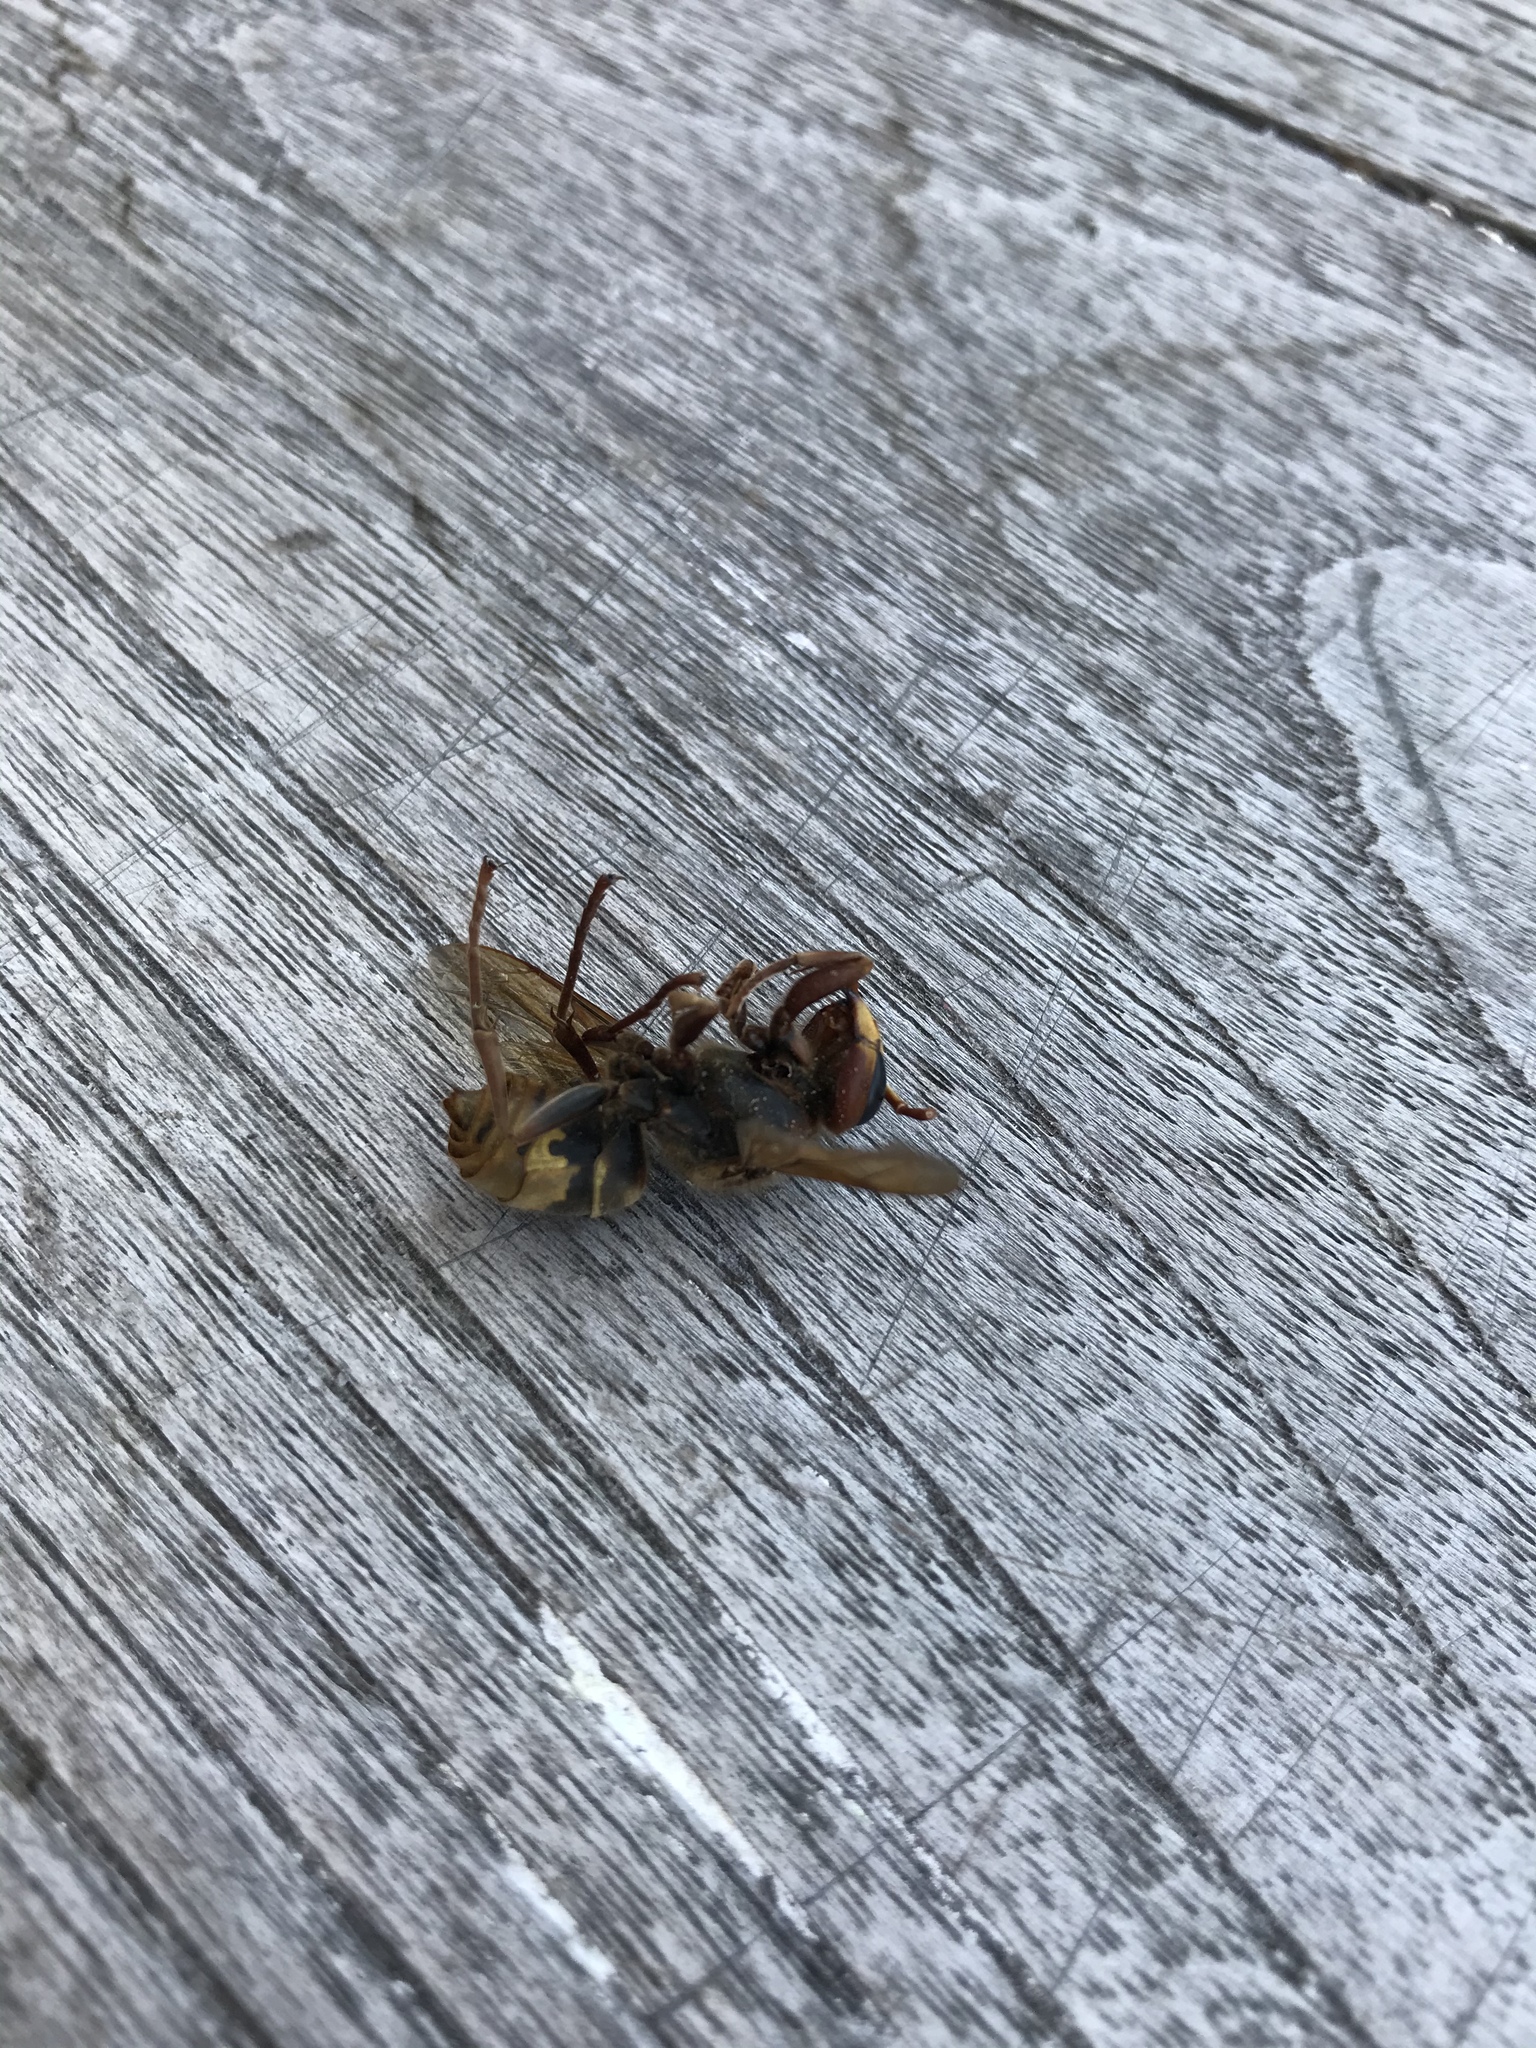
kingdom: Animalia
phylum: Arthropoda
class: Insecta
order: Hymenoptera
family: Vespidae
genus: Vespa
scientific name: Vespa crabro
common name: Hornet
